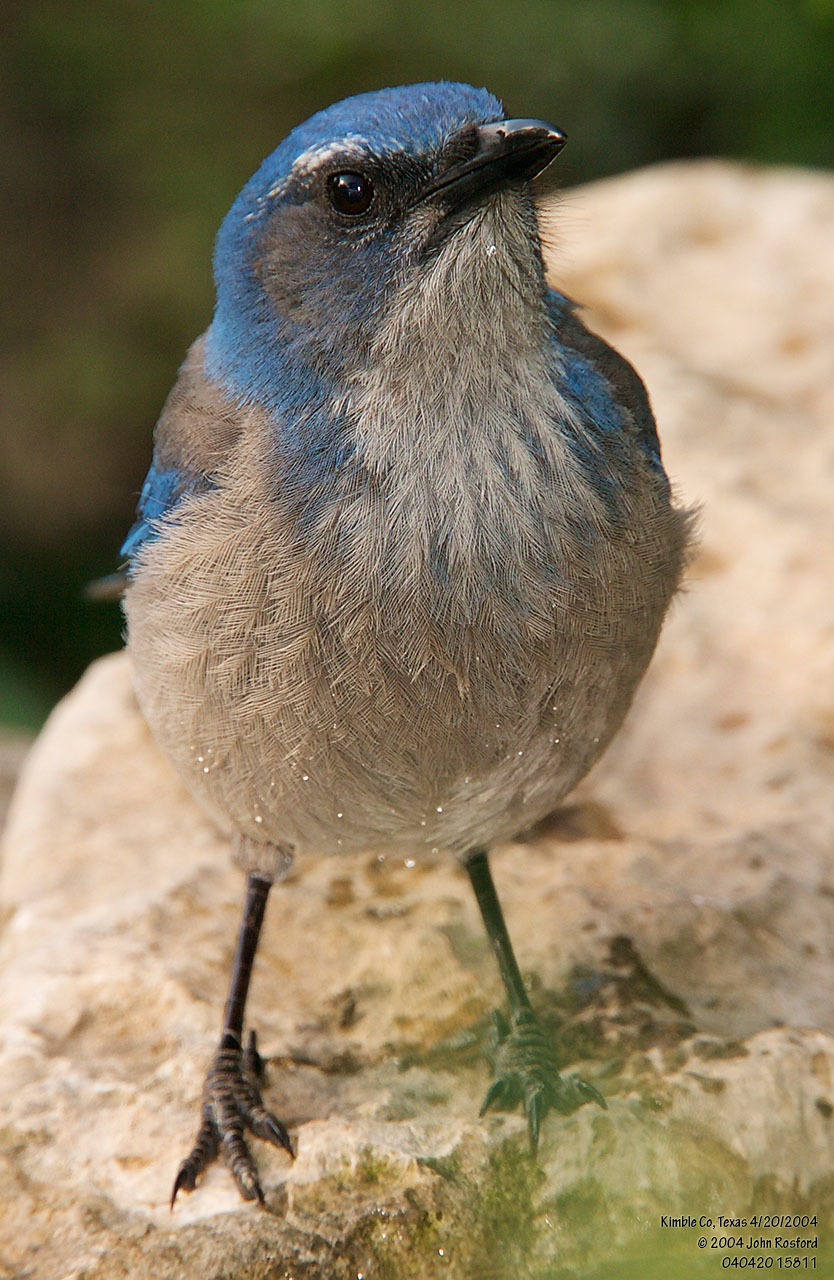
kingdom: Animalia
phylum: Chordata
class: Aves
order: Passeriformes
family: Corvidae
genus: Aphelocoma
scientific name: Aphelocoma woodhouseii
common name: Woodhouse's scrub-jay
